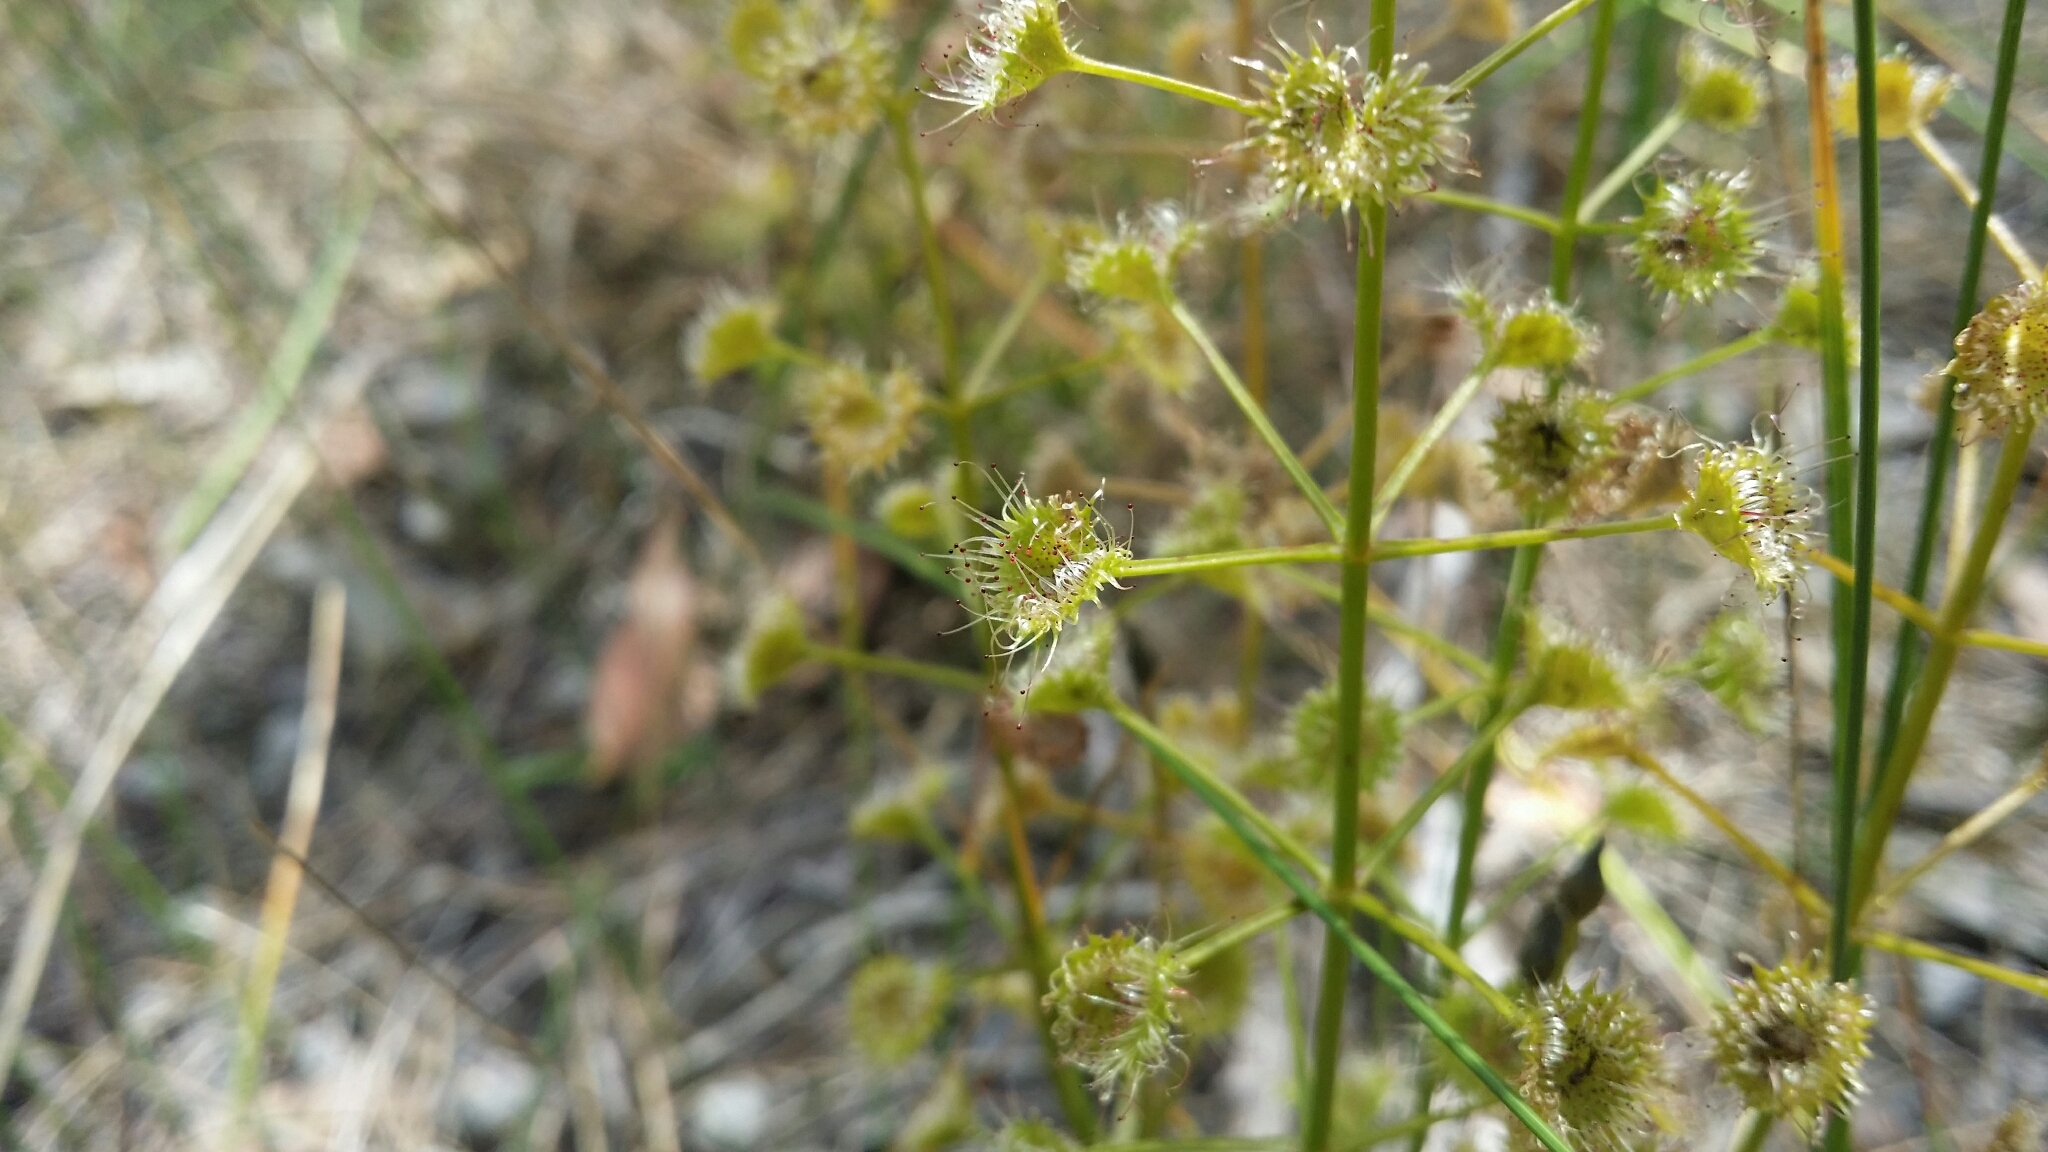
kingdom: Plantae
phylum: Tracheophyta
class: Magnoliopsida
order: Caryophyllales
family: Droseraceae
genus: Drosera
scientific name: Drosera stolonifera
